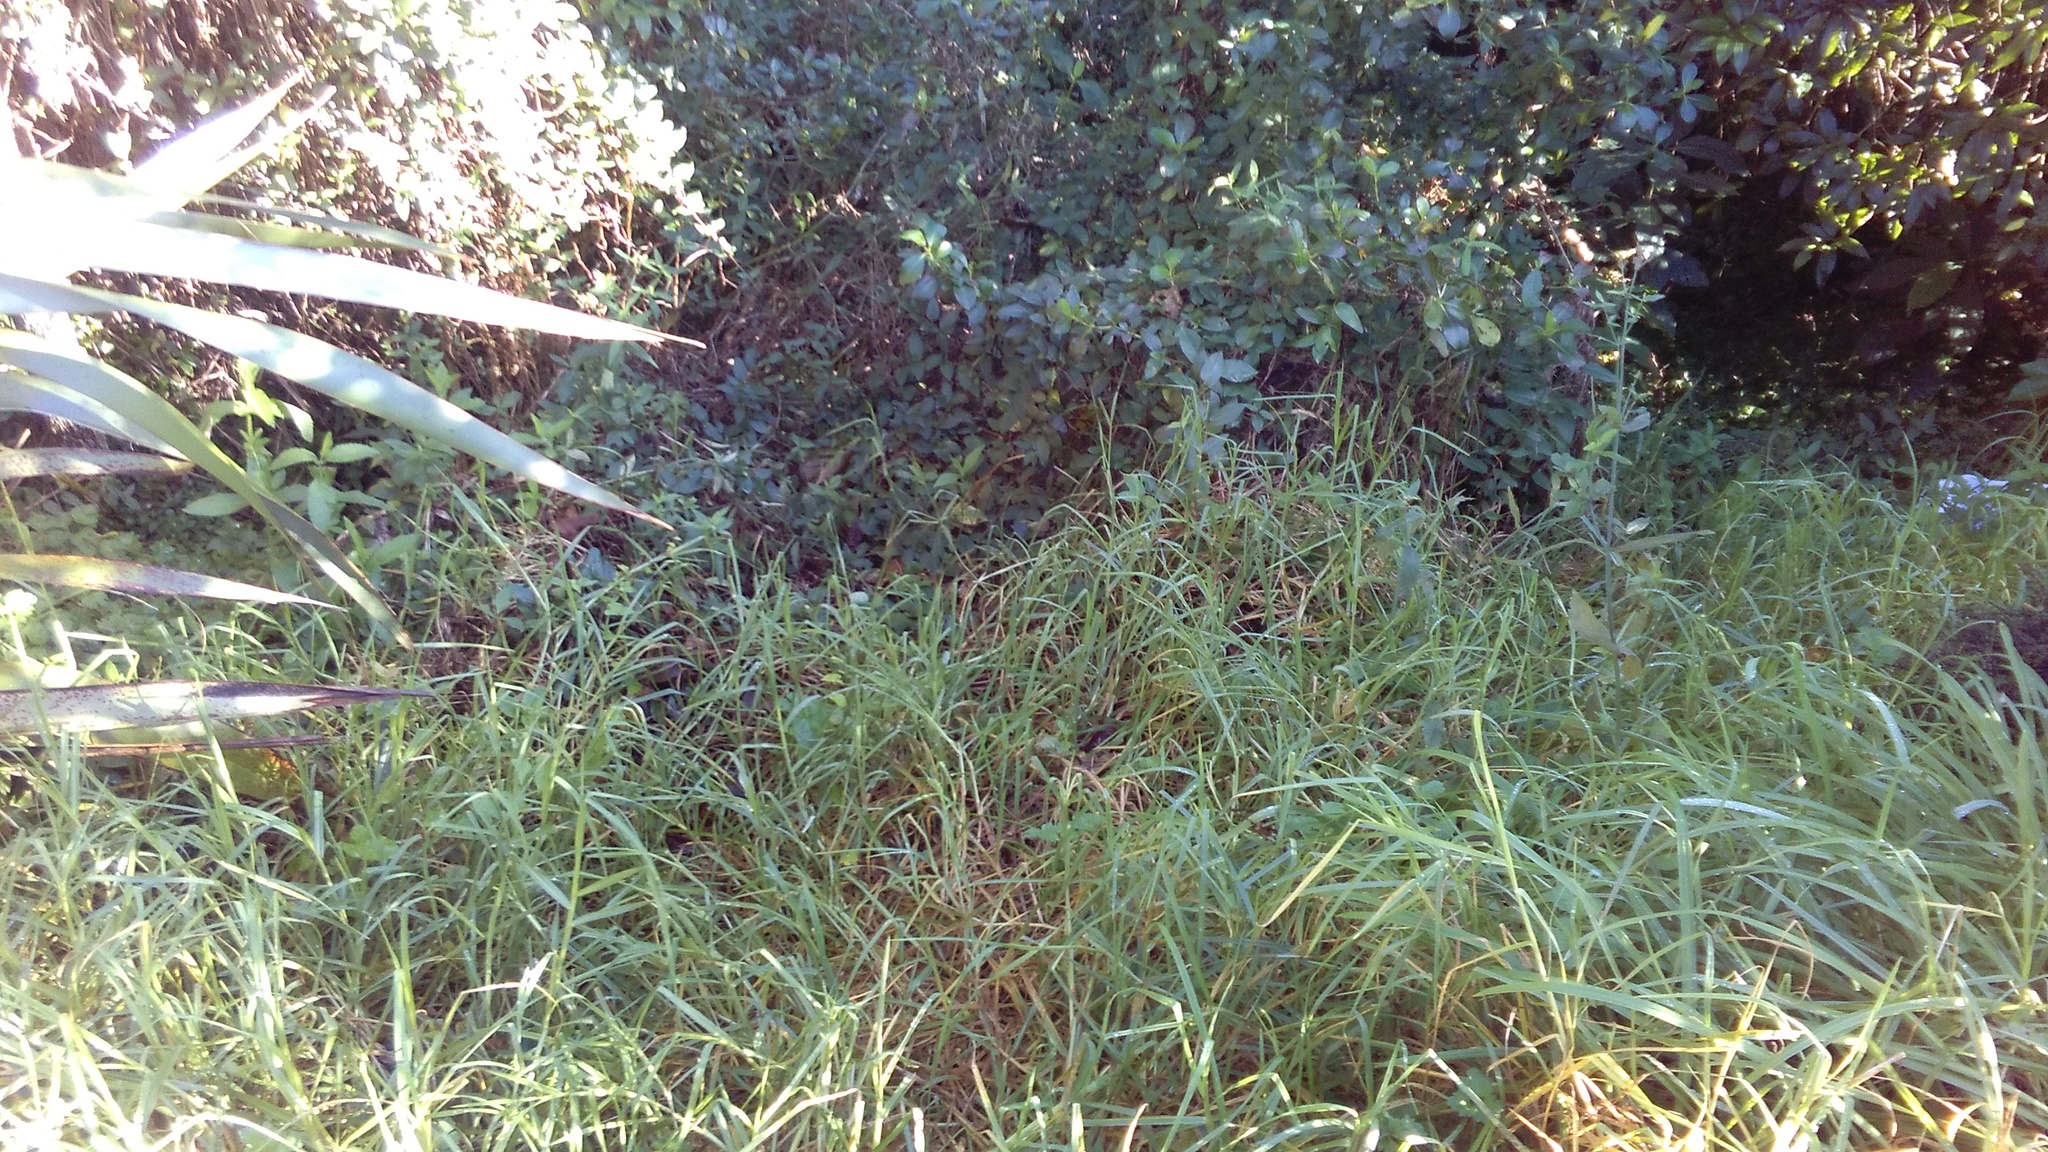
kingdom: Plantae
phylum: Tracheophyta
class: Liliopsida
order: Poales
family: Poaceae
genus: Cenchrus
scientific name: Cenchrus clandestinus
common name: Kikuyugrass
